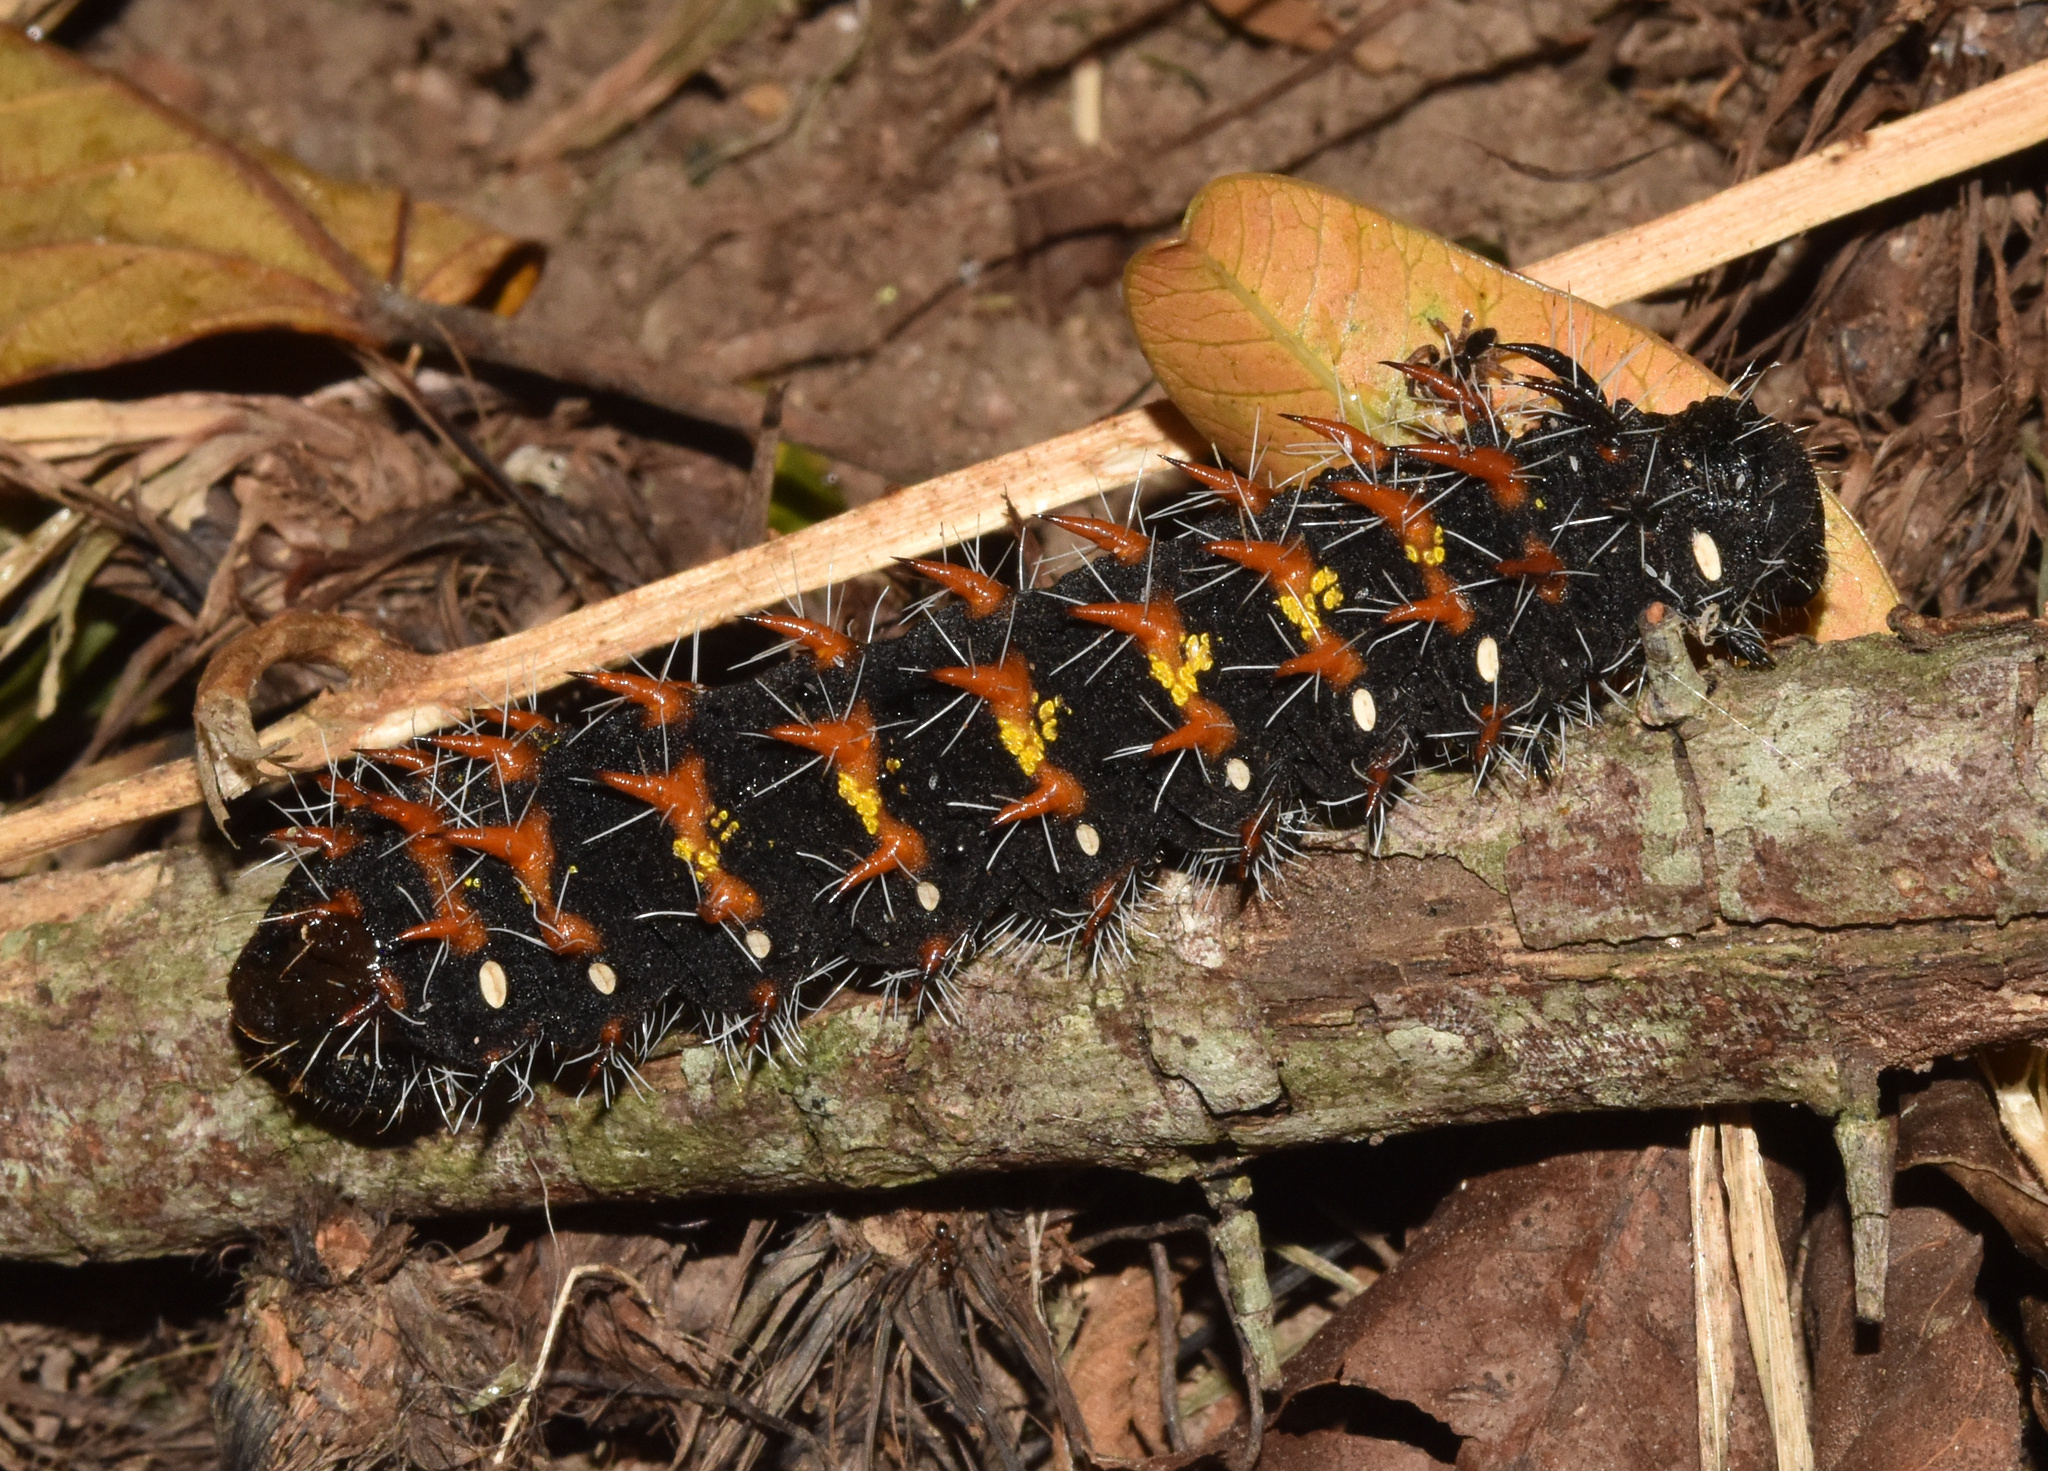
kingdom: Animalia
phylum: Arthropoda
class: Insecta
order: Lepidoptera
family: Saturniidae
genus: Nudaurelia
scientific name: Nudaurelia wahlbergi
